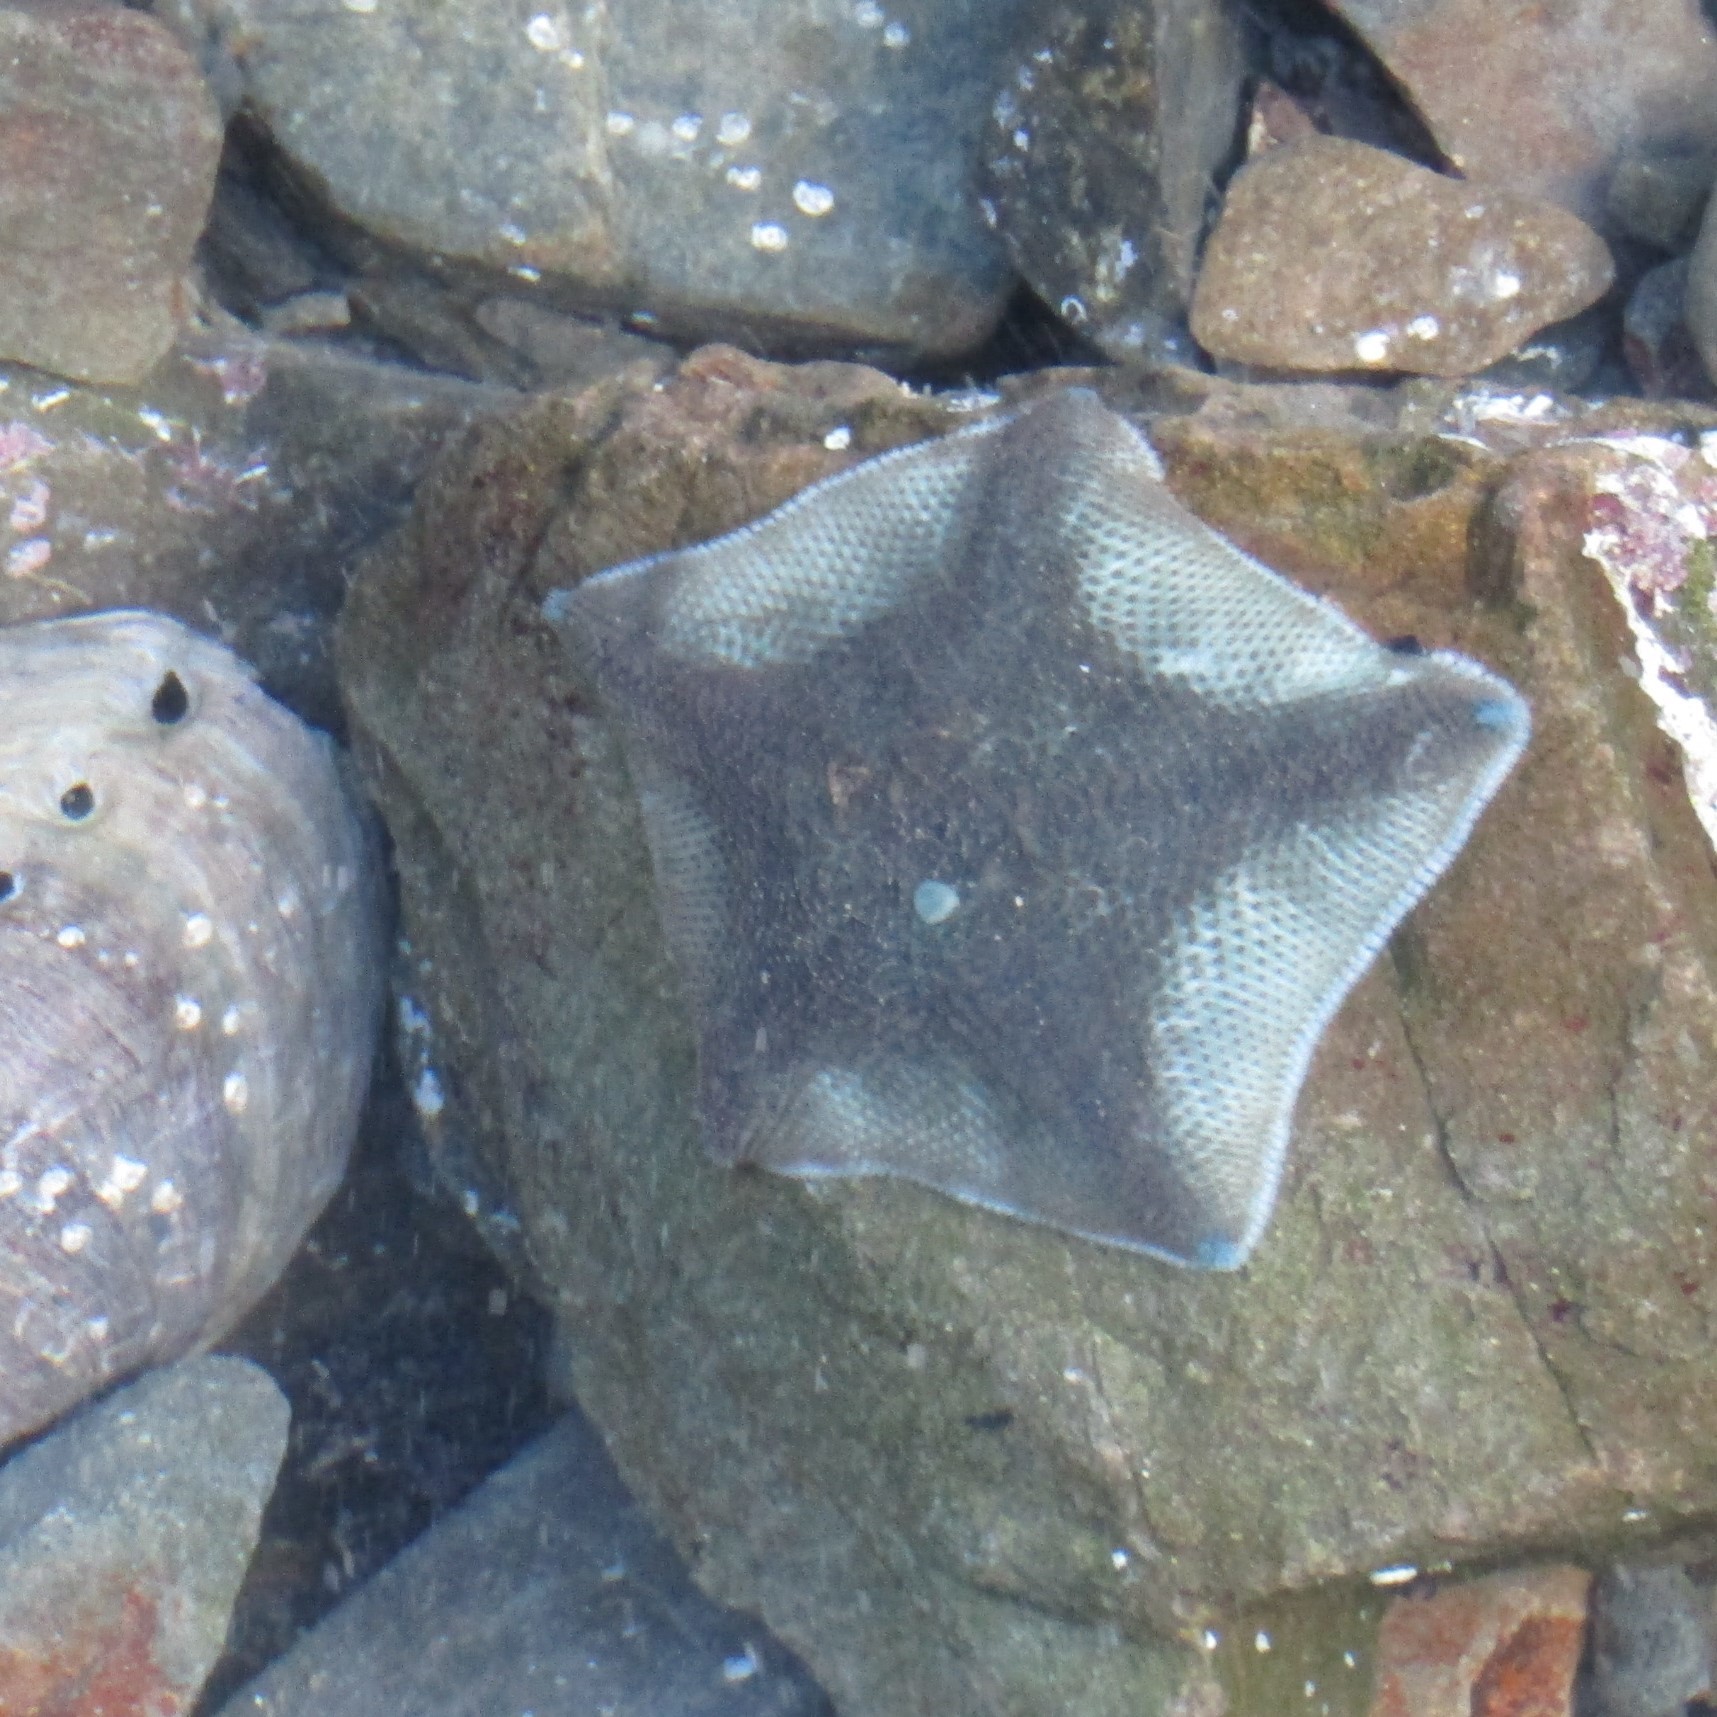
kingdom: Animalia
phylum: Echinodermata
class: Asteroidea
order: Valvatida
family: Asterinidae
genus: Patiriella
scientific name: Patiriella regularis
